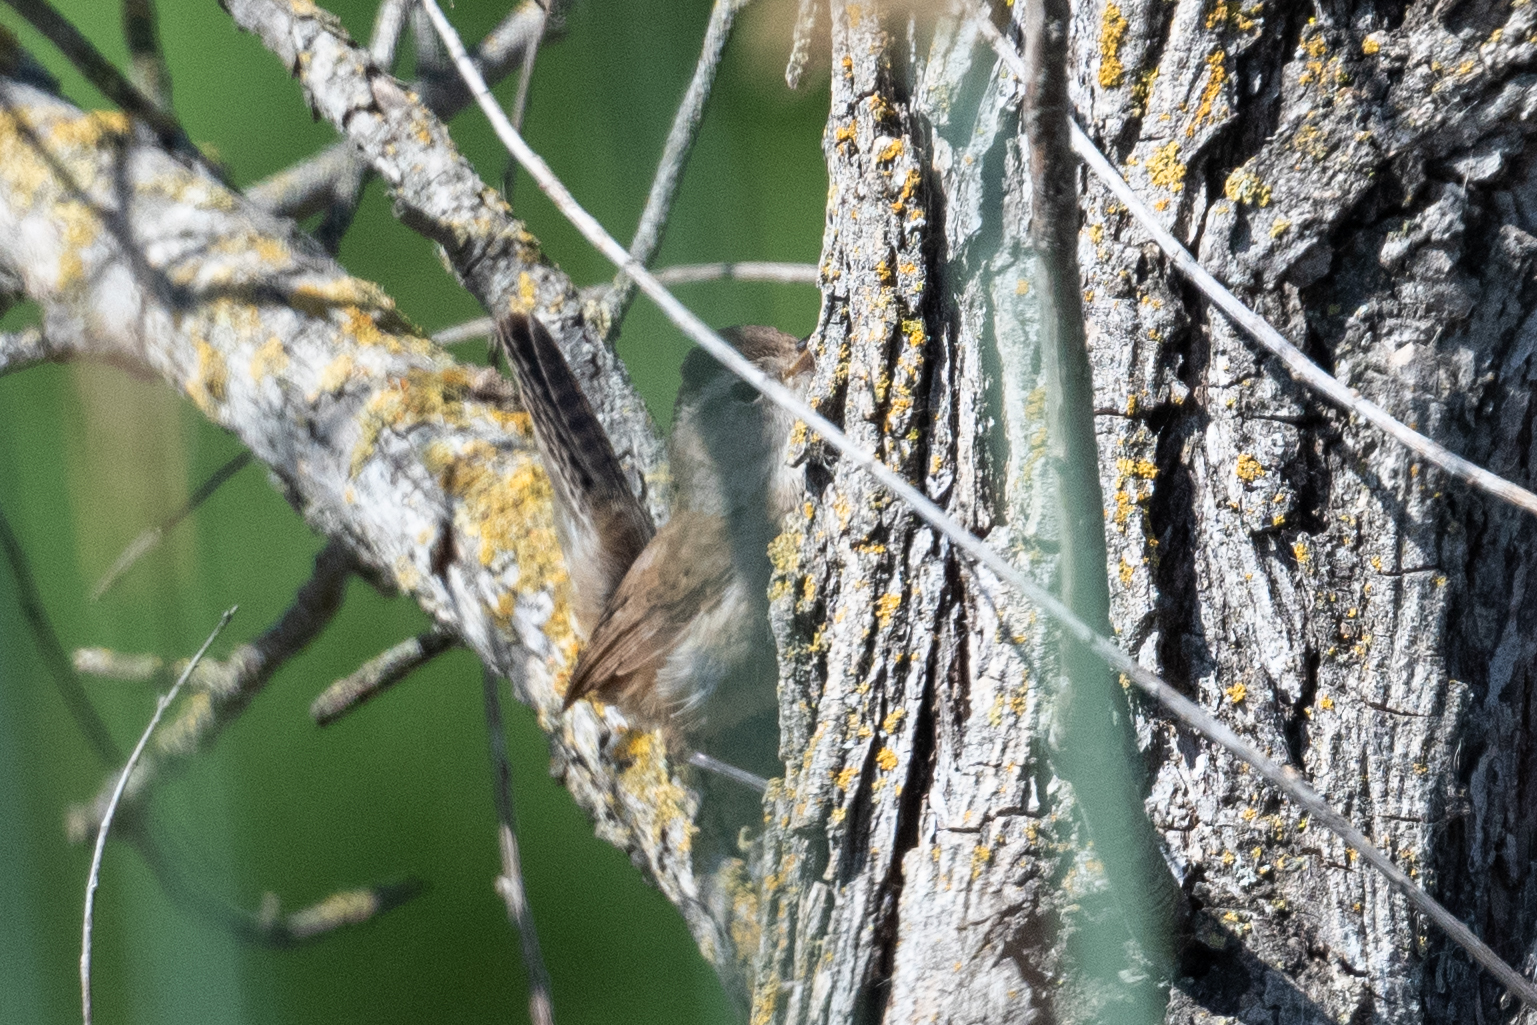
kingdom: Animalia
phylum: Chordata
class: Aves
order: Passeriformes
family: Troglodytidae
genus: Troglodytes
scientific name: Troglodytes aedon
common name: House wren
